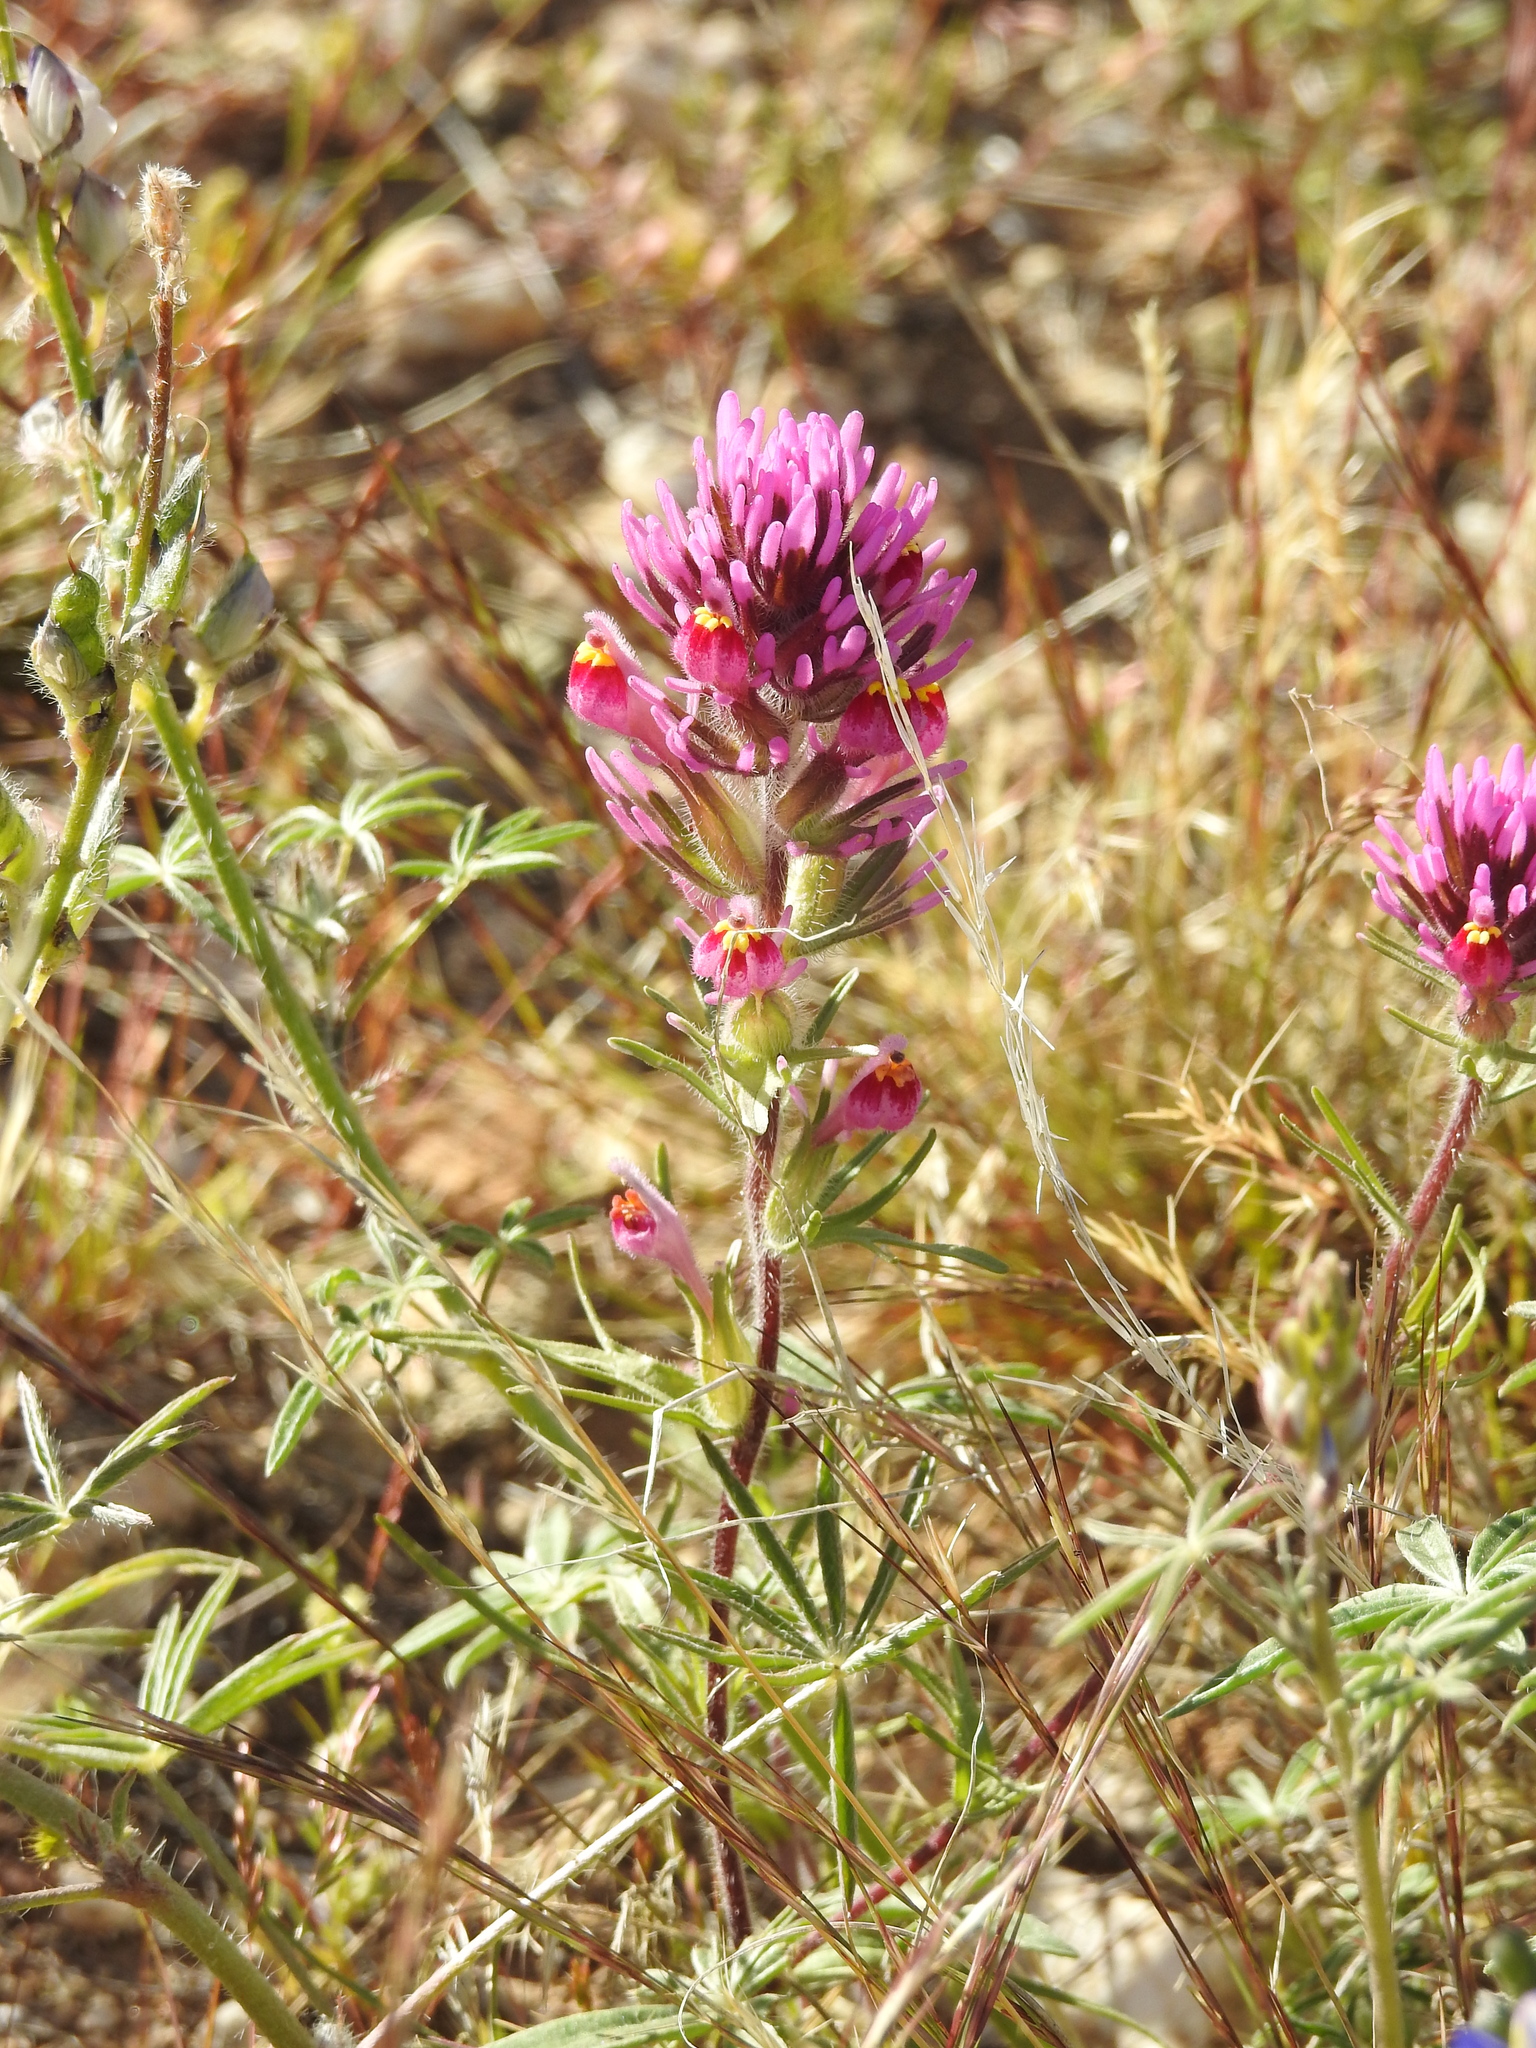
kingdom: Plantae
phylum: Tracheophyta
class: Magnoliopsida
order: Lamiales
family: Orobanchaceae
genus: Castilleja
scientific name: Castilleja exserta
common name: Purple owl-clover
